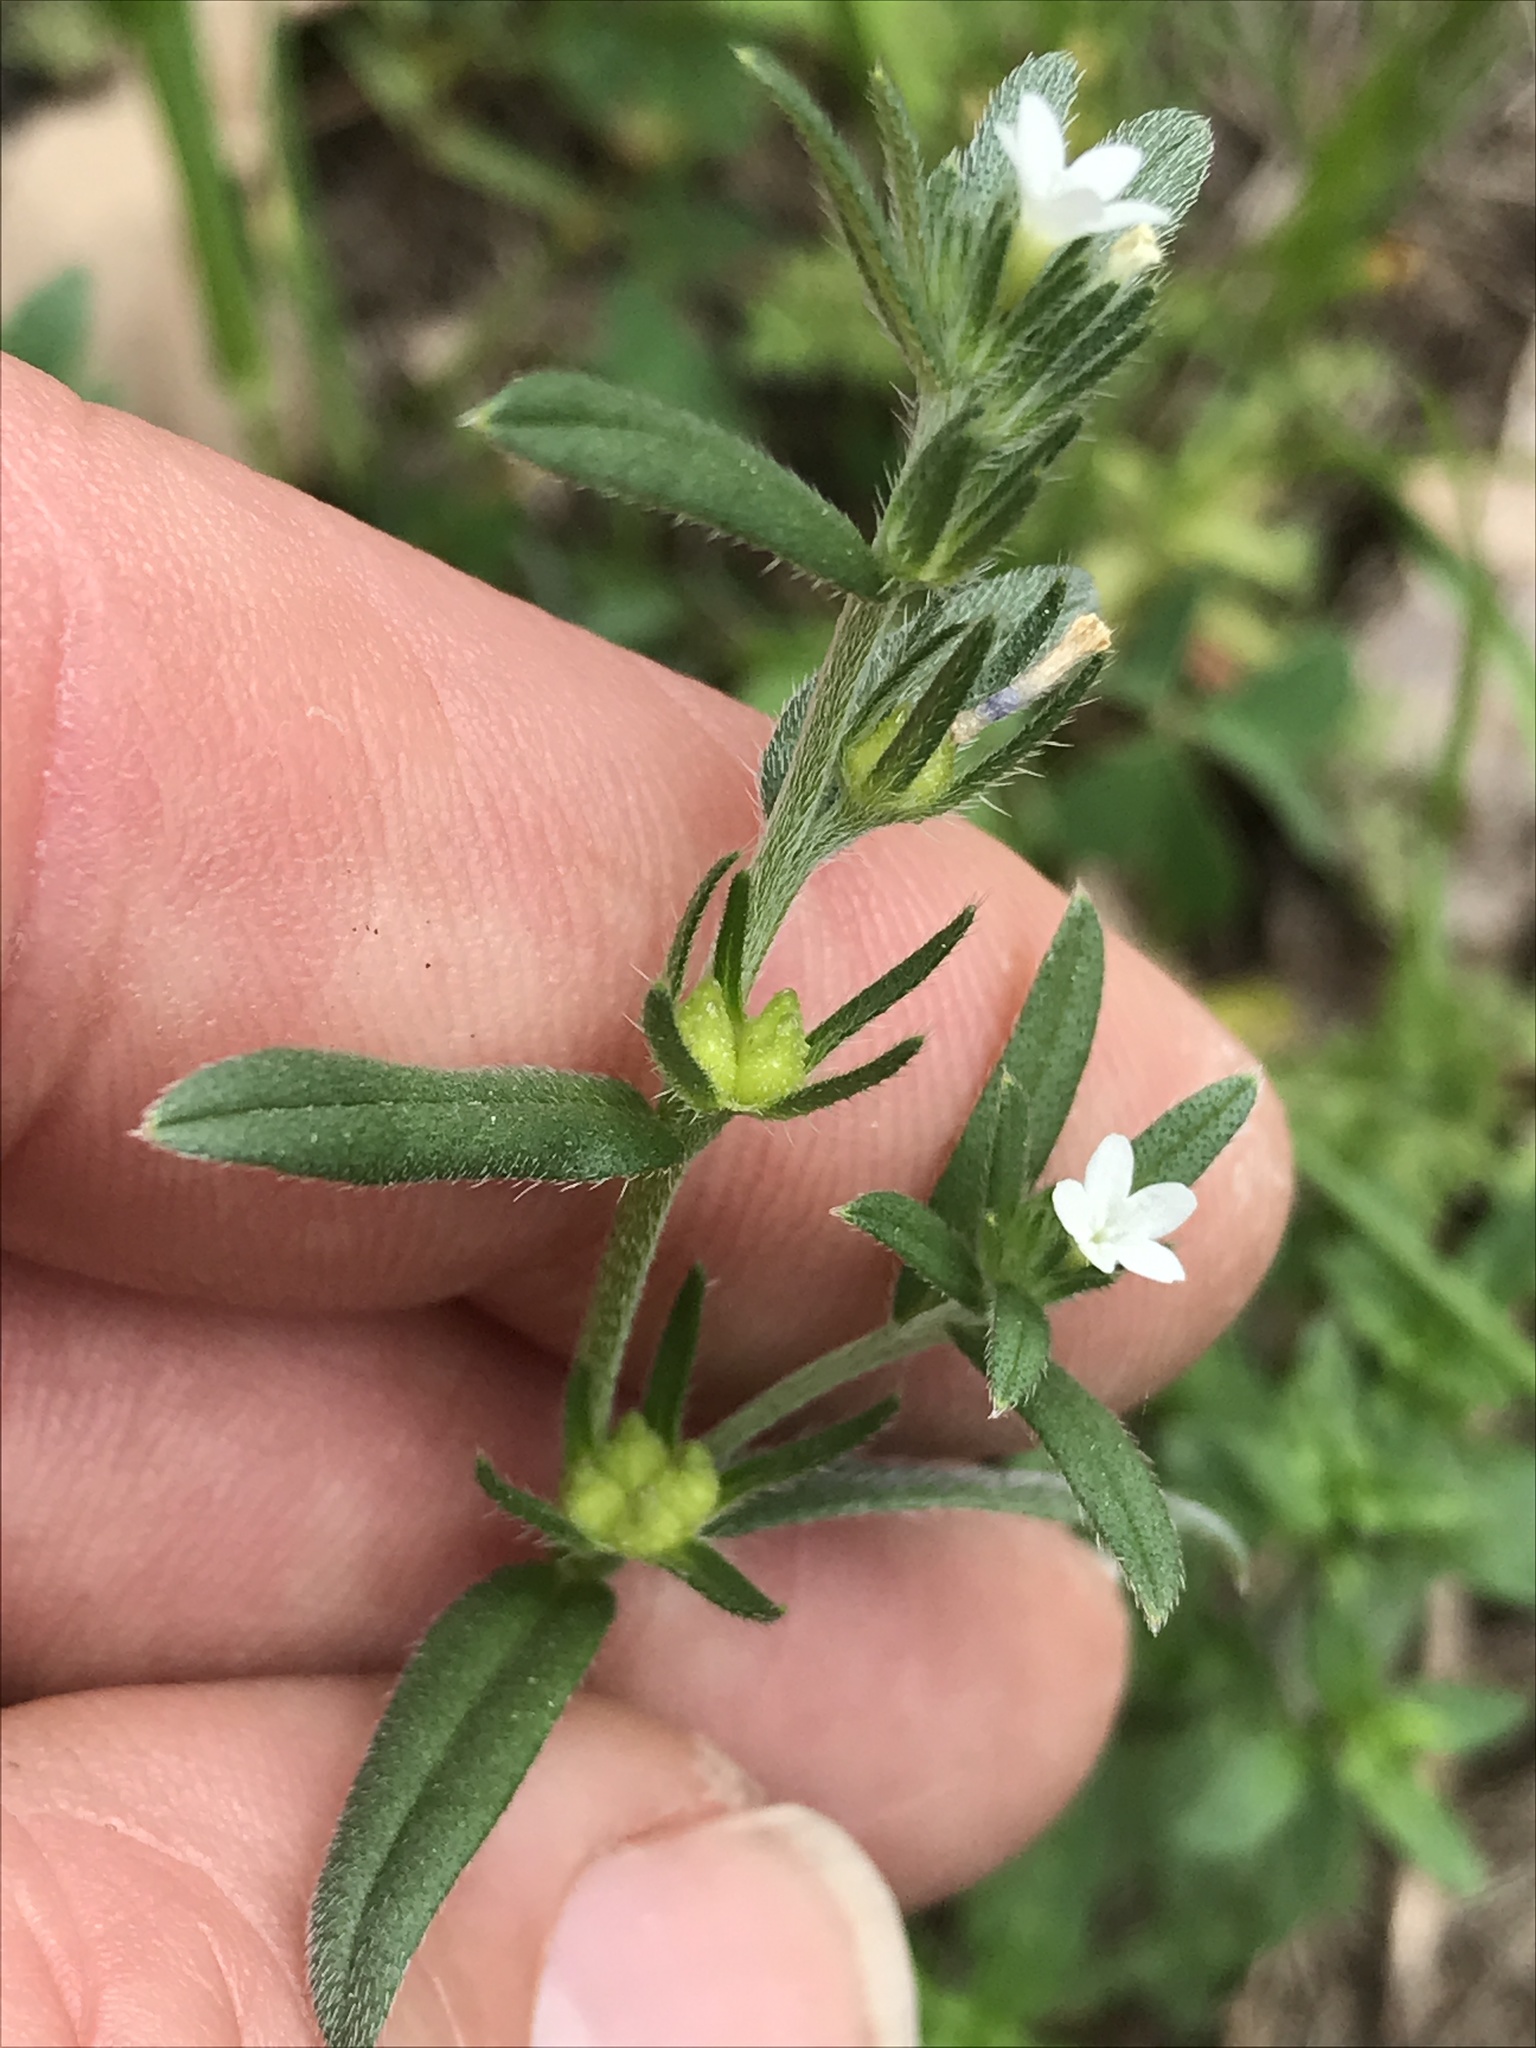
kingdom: Plantae
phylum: Tracheophyta
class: Magnoliopsida
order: Boraginales
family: Boraginaceae
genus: Buglossoides
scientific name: Buglossoides arvensis
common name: Corn gromwell
